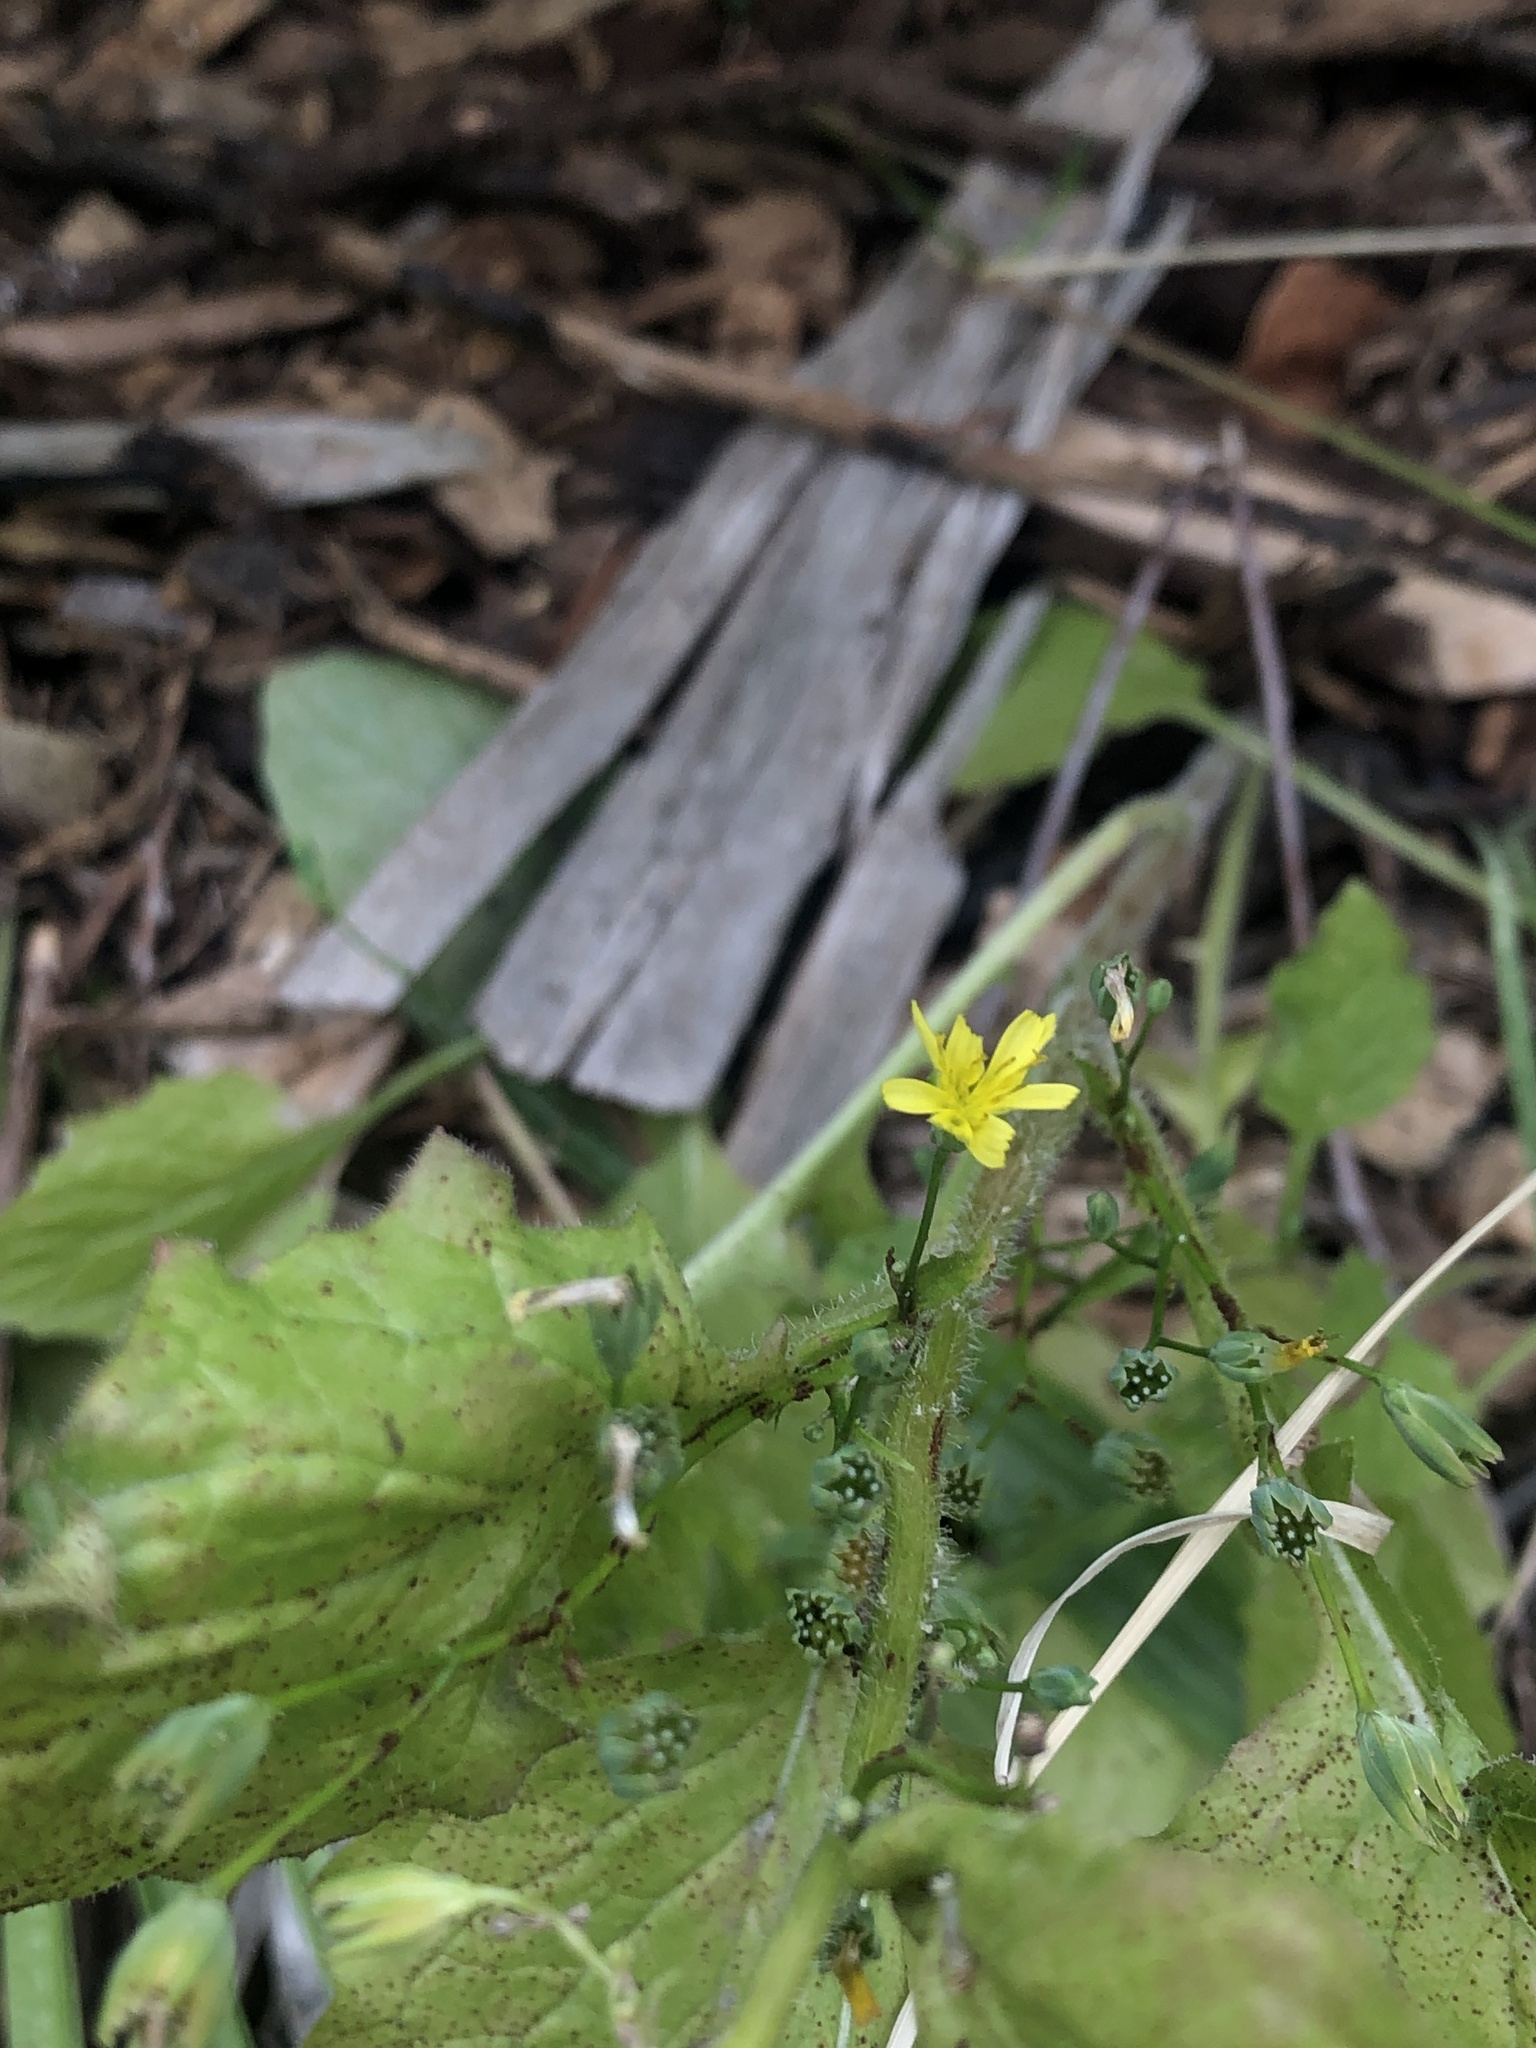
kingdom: Plantae
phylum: Tracheophyta
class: Magnoliopsida
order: Asterales
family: Asteraceae
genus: Lapsana
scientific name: Lapsana communis
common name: Nipplewort
